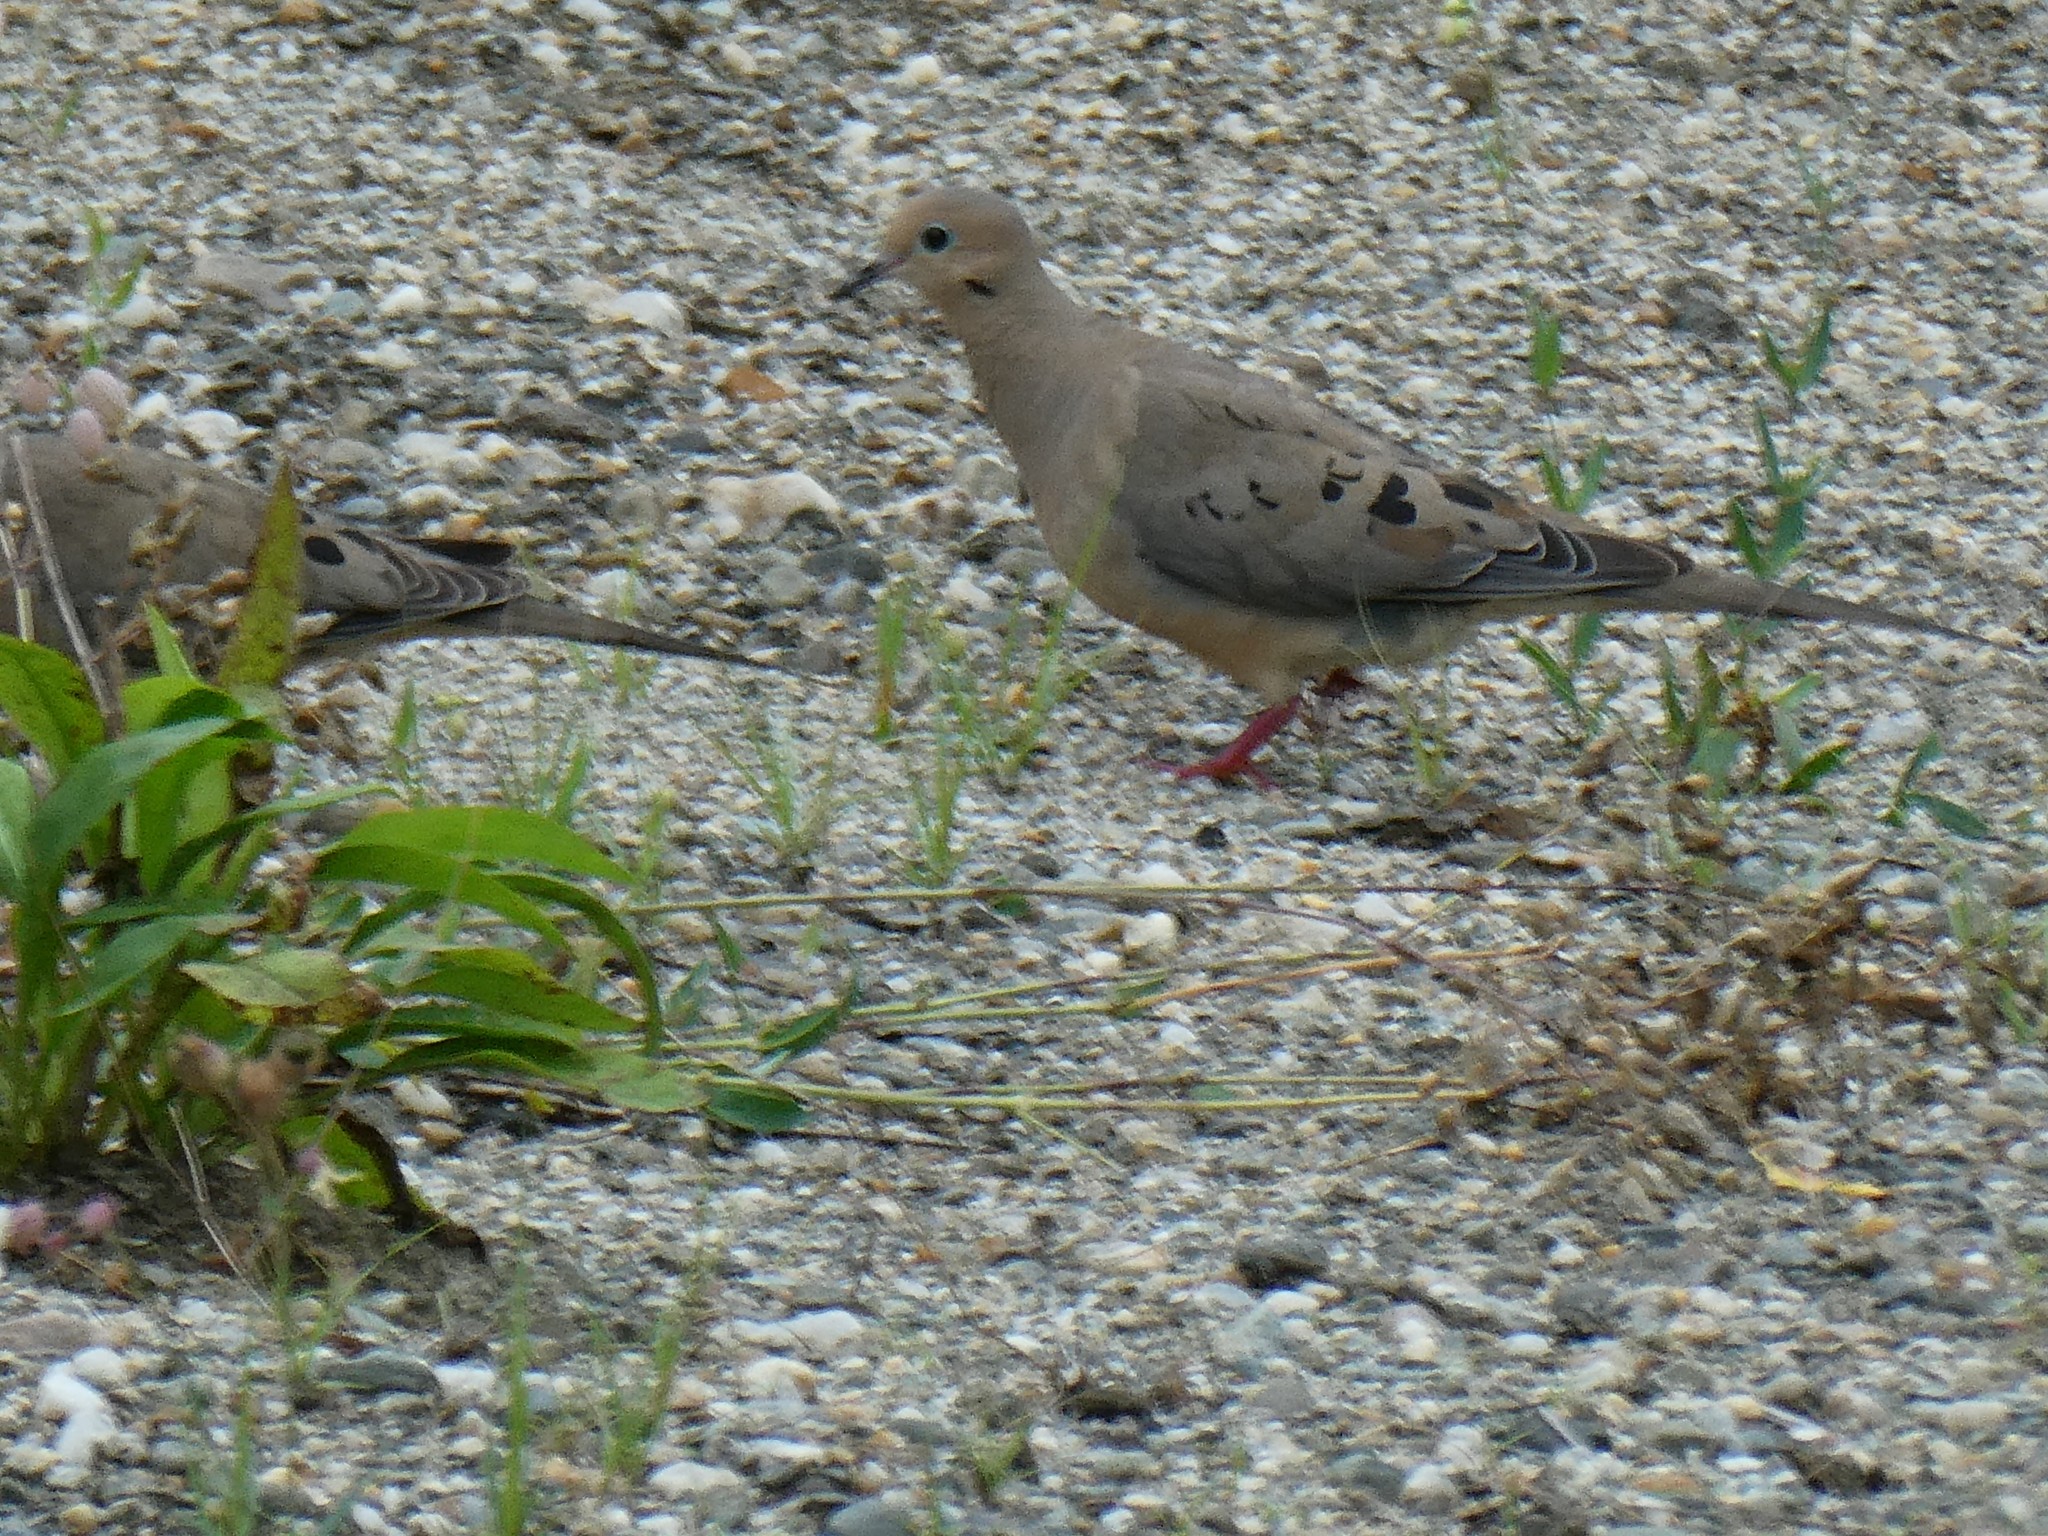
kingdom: Animalia
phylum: Chordata
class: Aves
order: Columbiformes
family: Columbidae
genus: Zenaida
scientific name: Zenaida macroura
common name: Mourning dove
